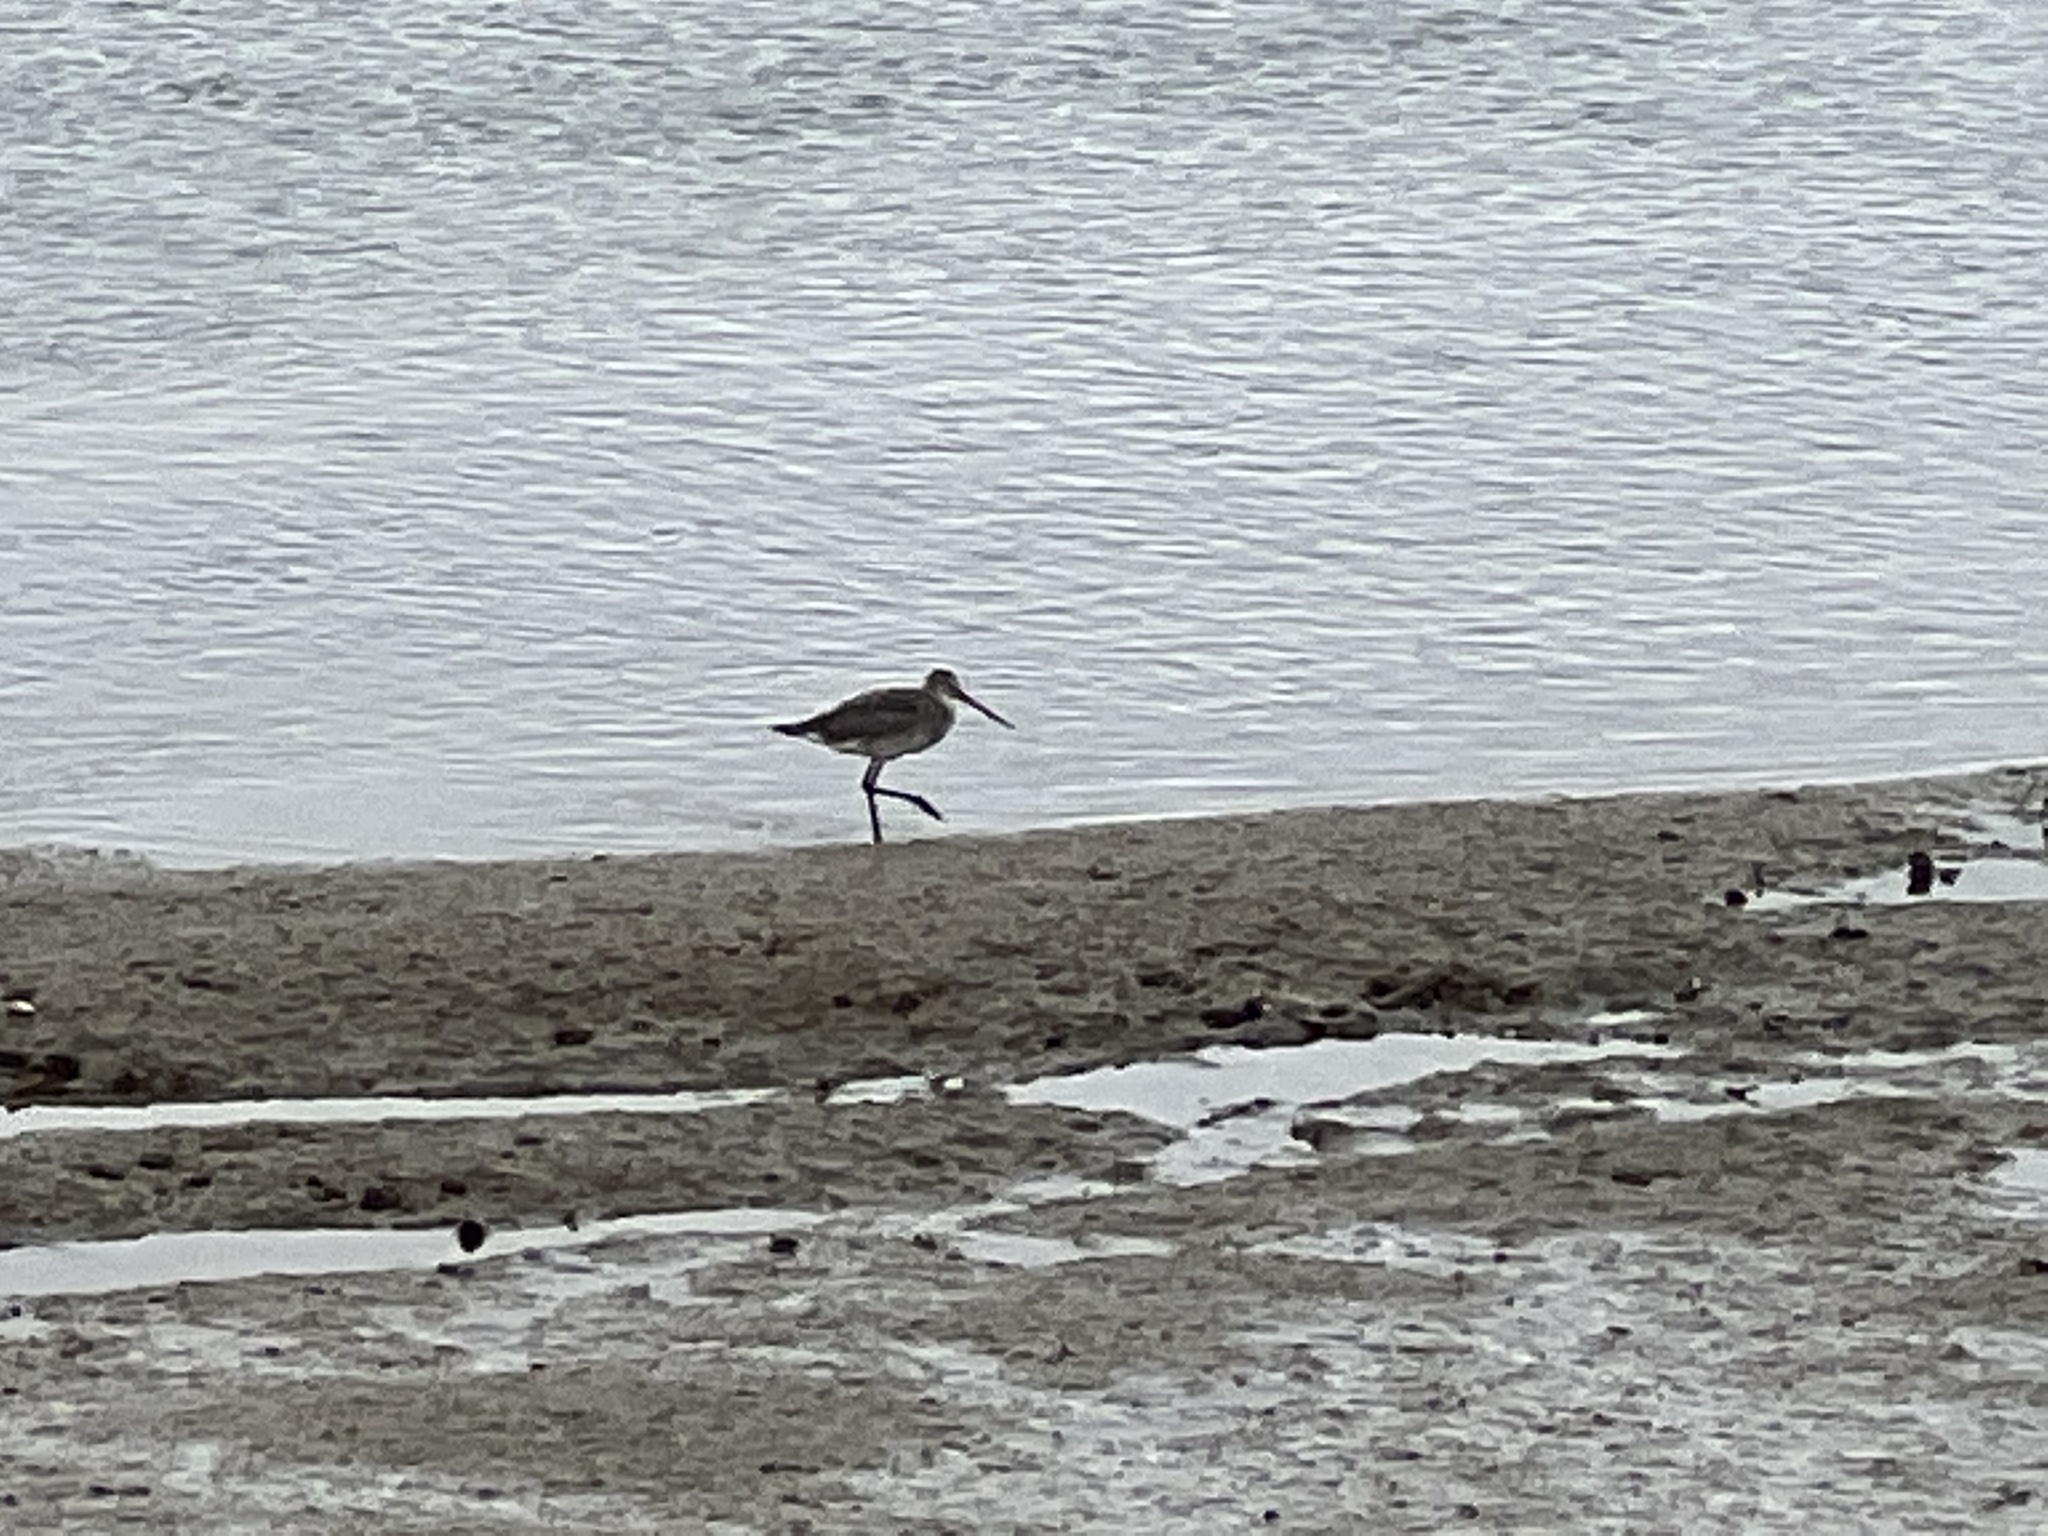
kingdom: Animalia
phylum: Chordata
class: Aves
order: Charadriiformes
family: Scolopacidae
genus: Limosa
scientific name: Limosa limosa
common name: Black-tailed godwit
